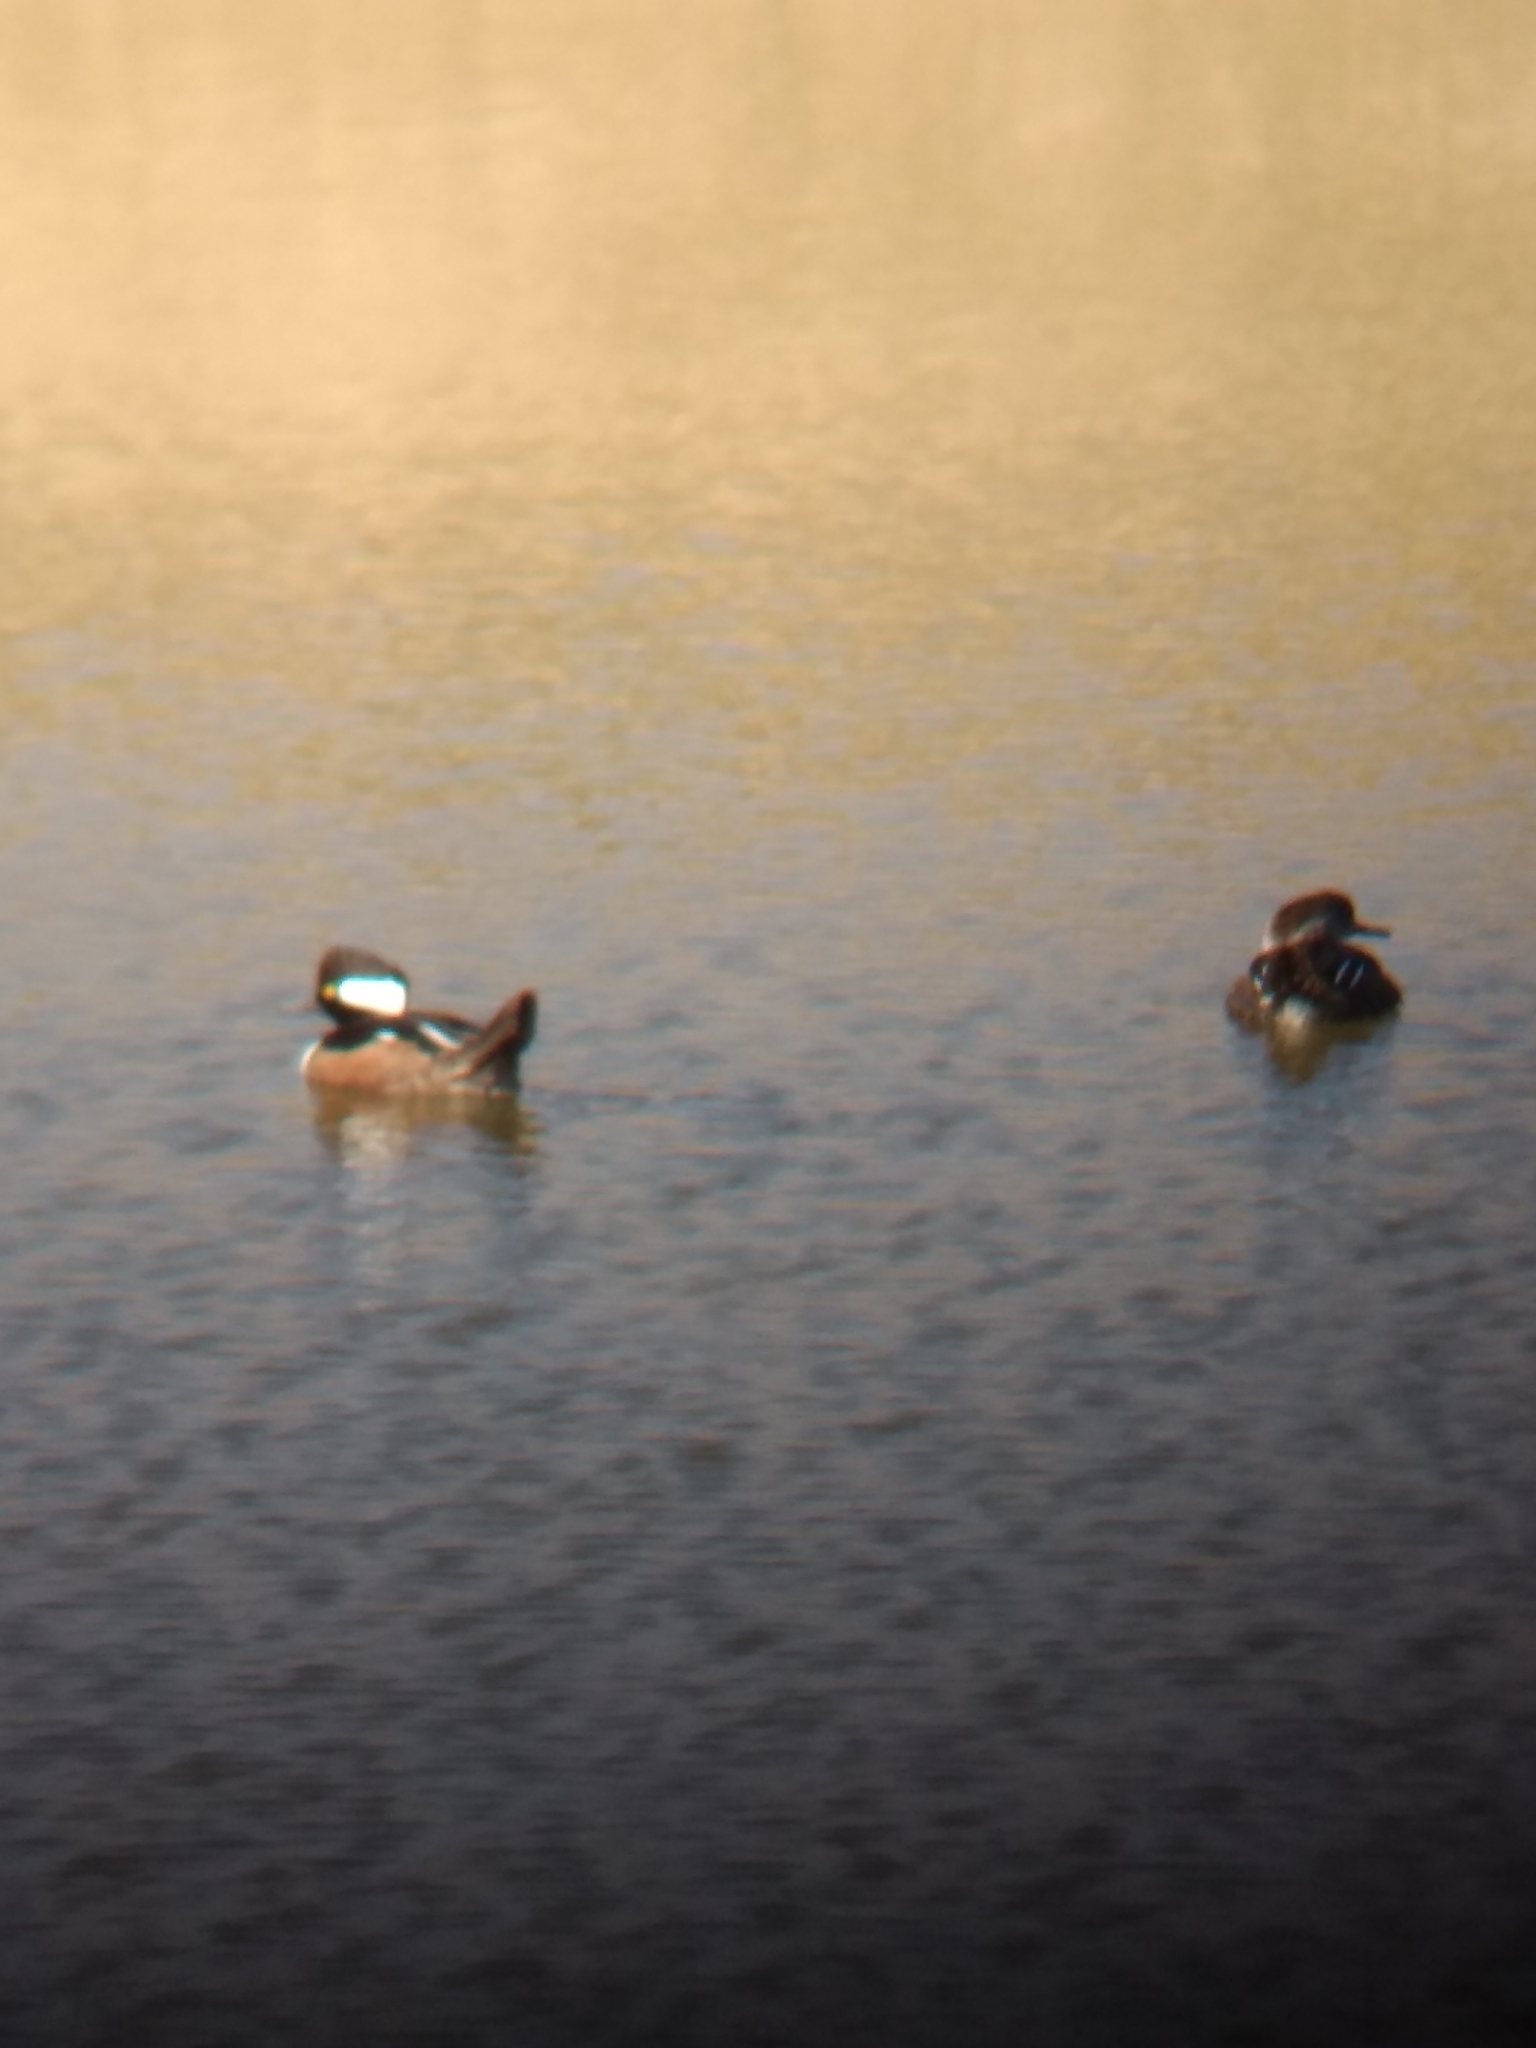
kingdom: Animalia
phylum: Chordata
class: Aves
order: Anseriformes
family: Anatidae
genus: Lophodytes
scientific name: Lophodytes cucullatus
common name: Hooded merganser
